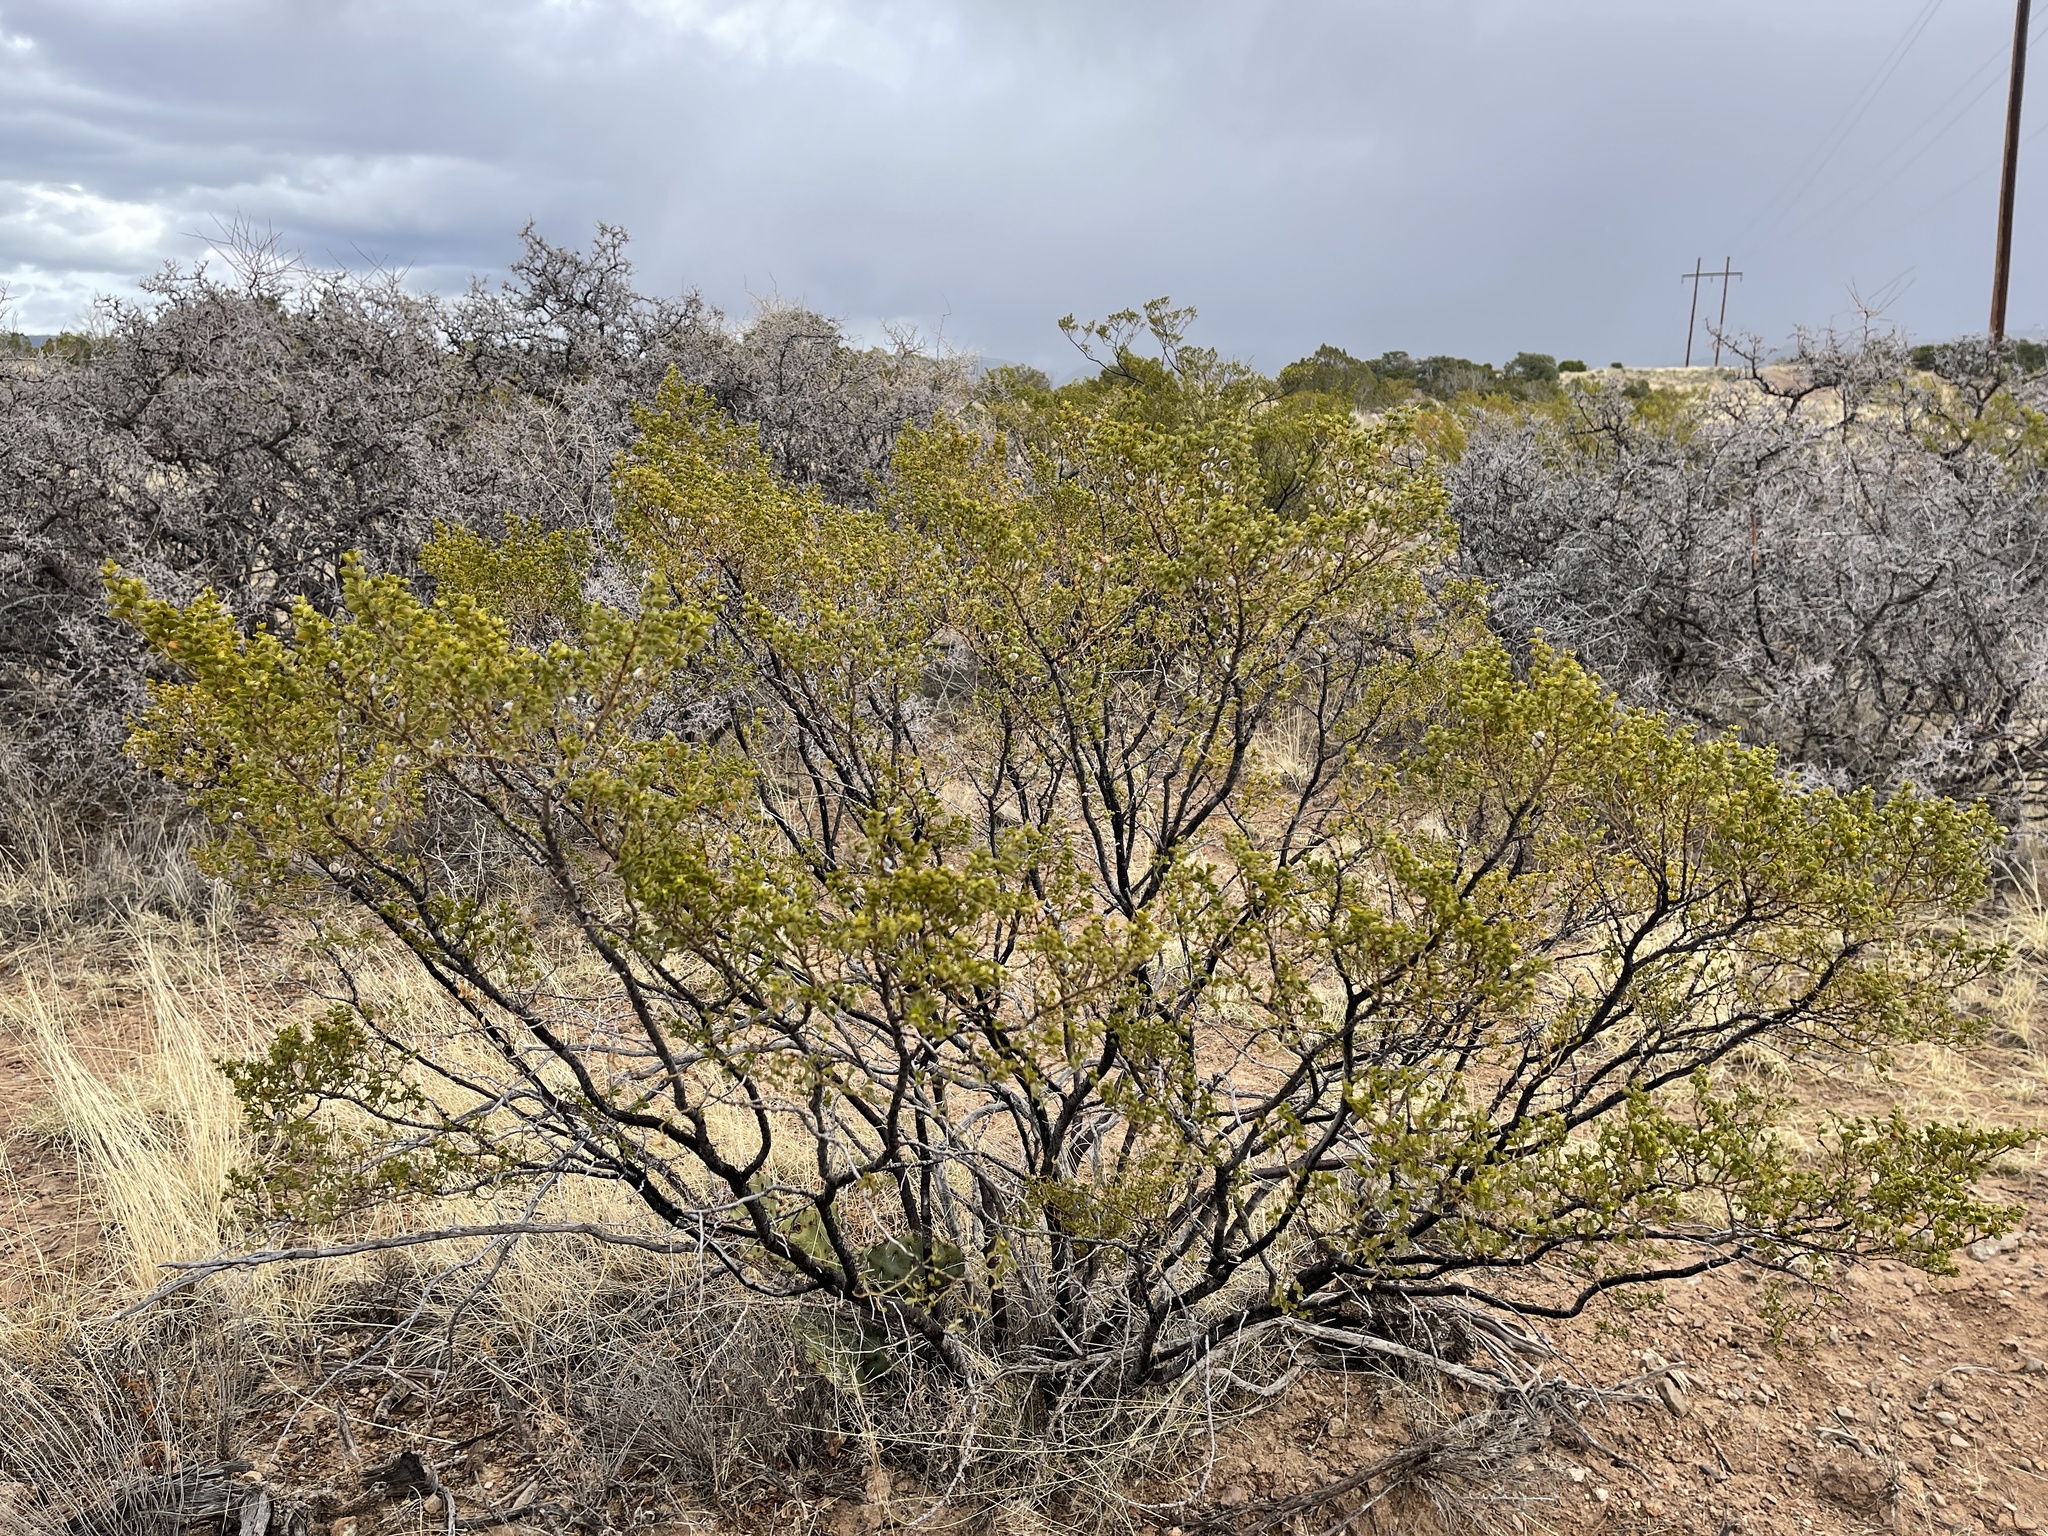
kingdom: Plantae
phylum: Tracheophyta
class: Magnoliopsida
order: Zygophyllales
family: Zygophyllaceae
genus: Larrea
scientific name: Larrea tridentata
